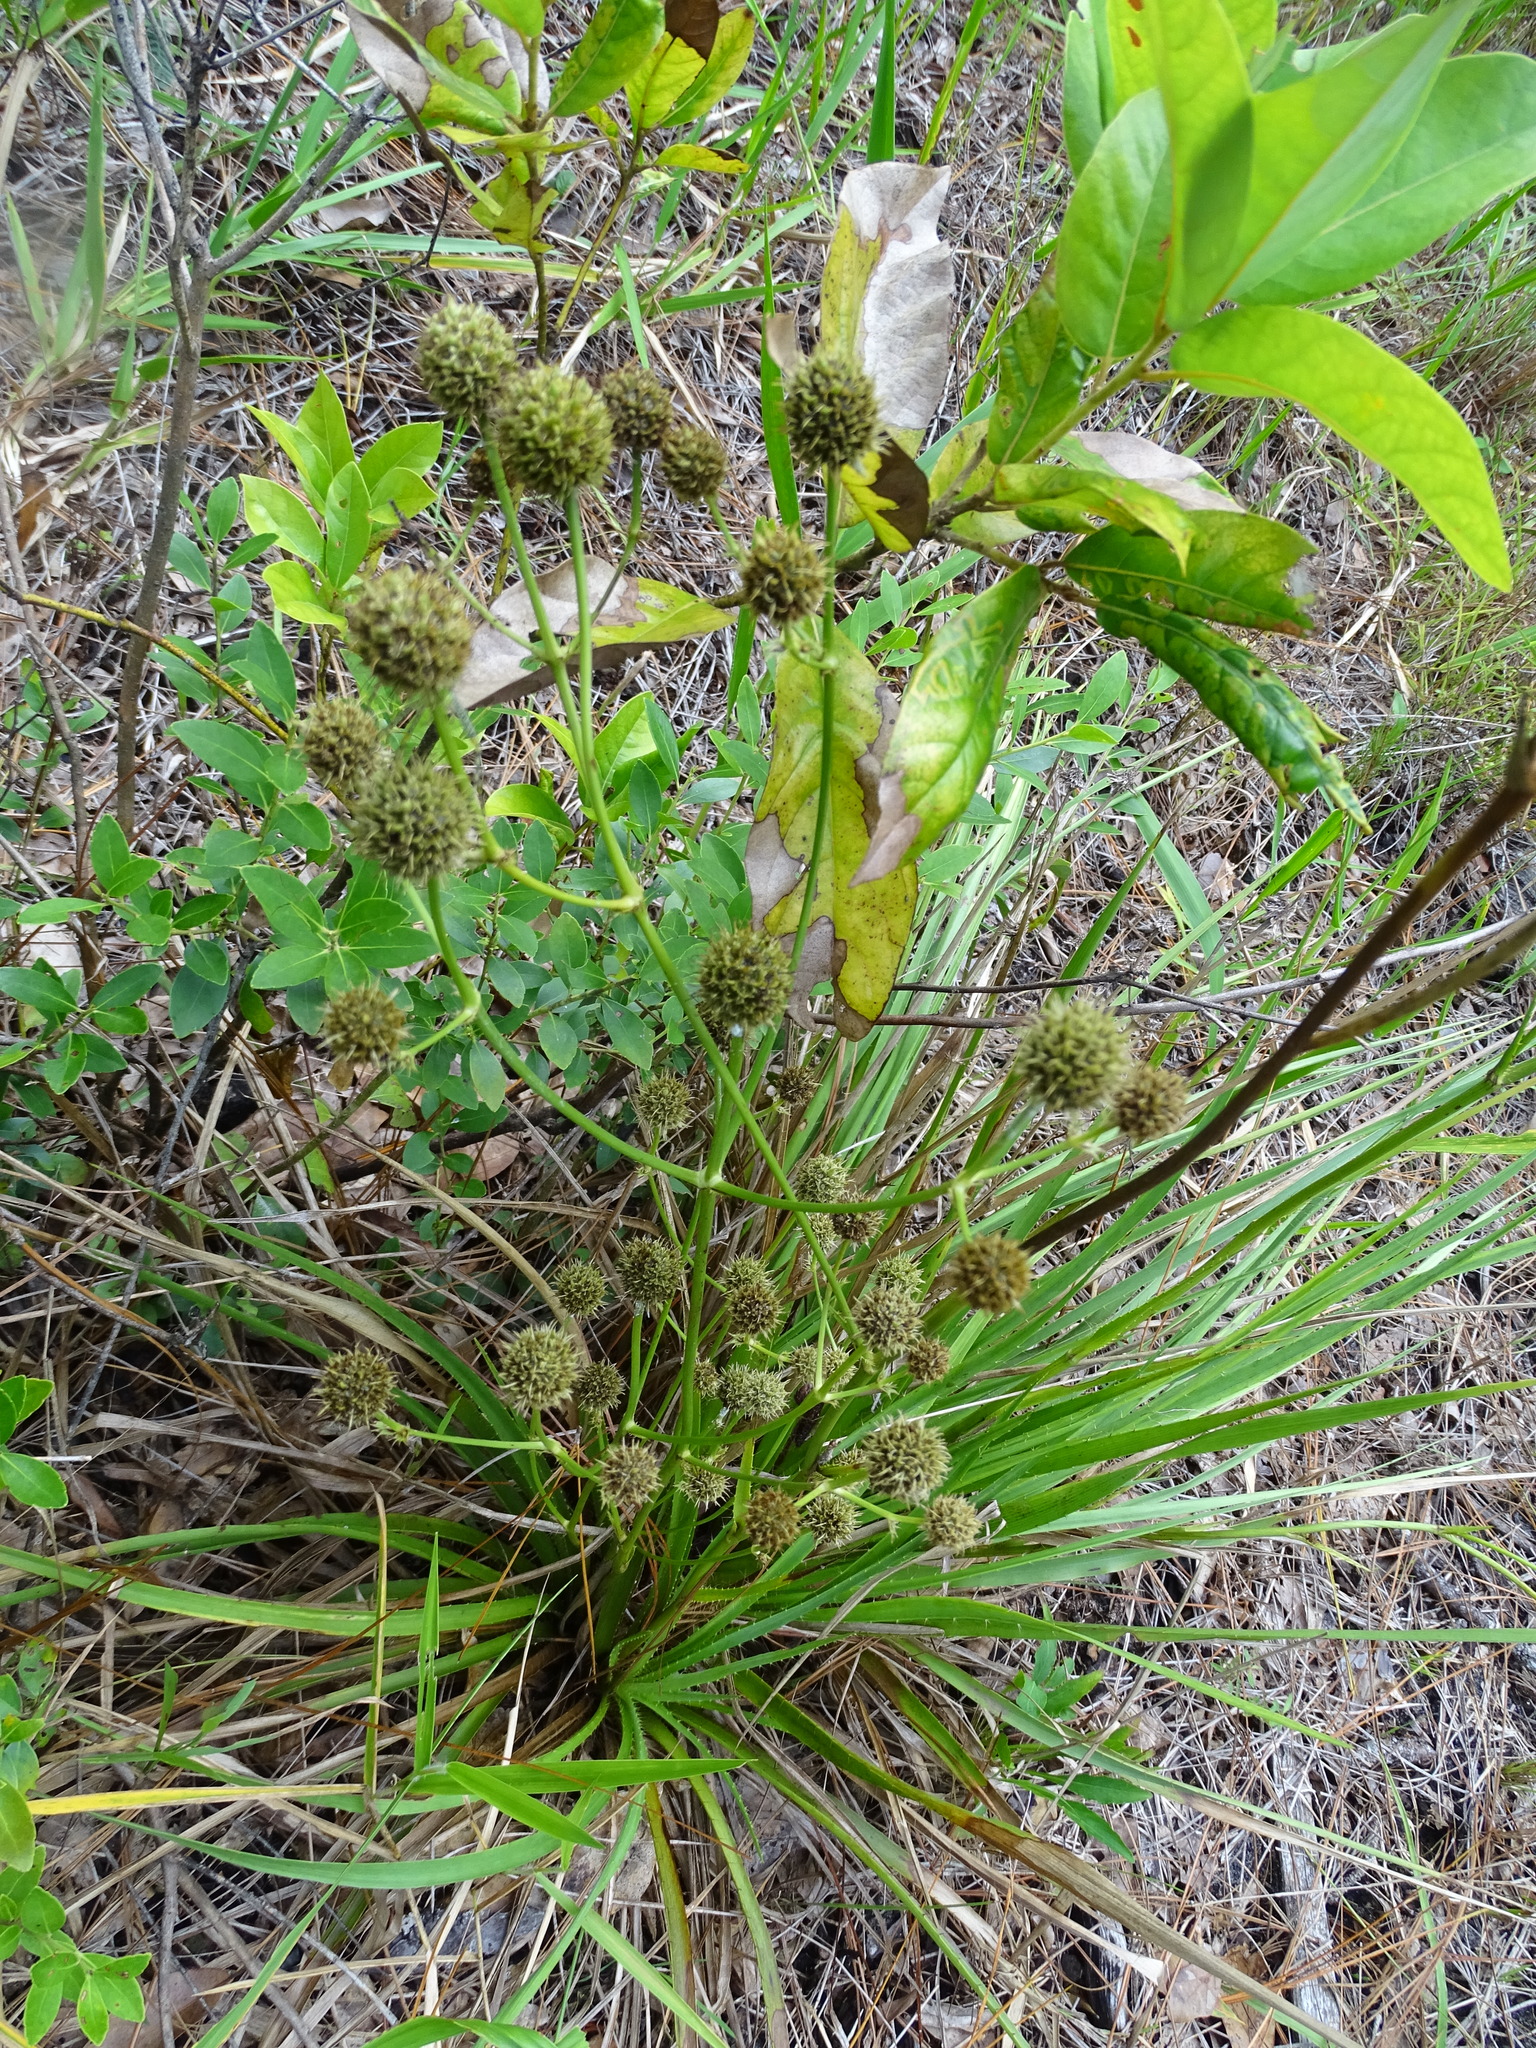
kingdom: Plantae
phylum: Tracheophyta
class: Magnoliopsida
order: Apiales
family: Apiaceae
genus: Eryngium
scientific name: Eryngium yuccifolium
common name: Button eryngo
